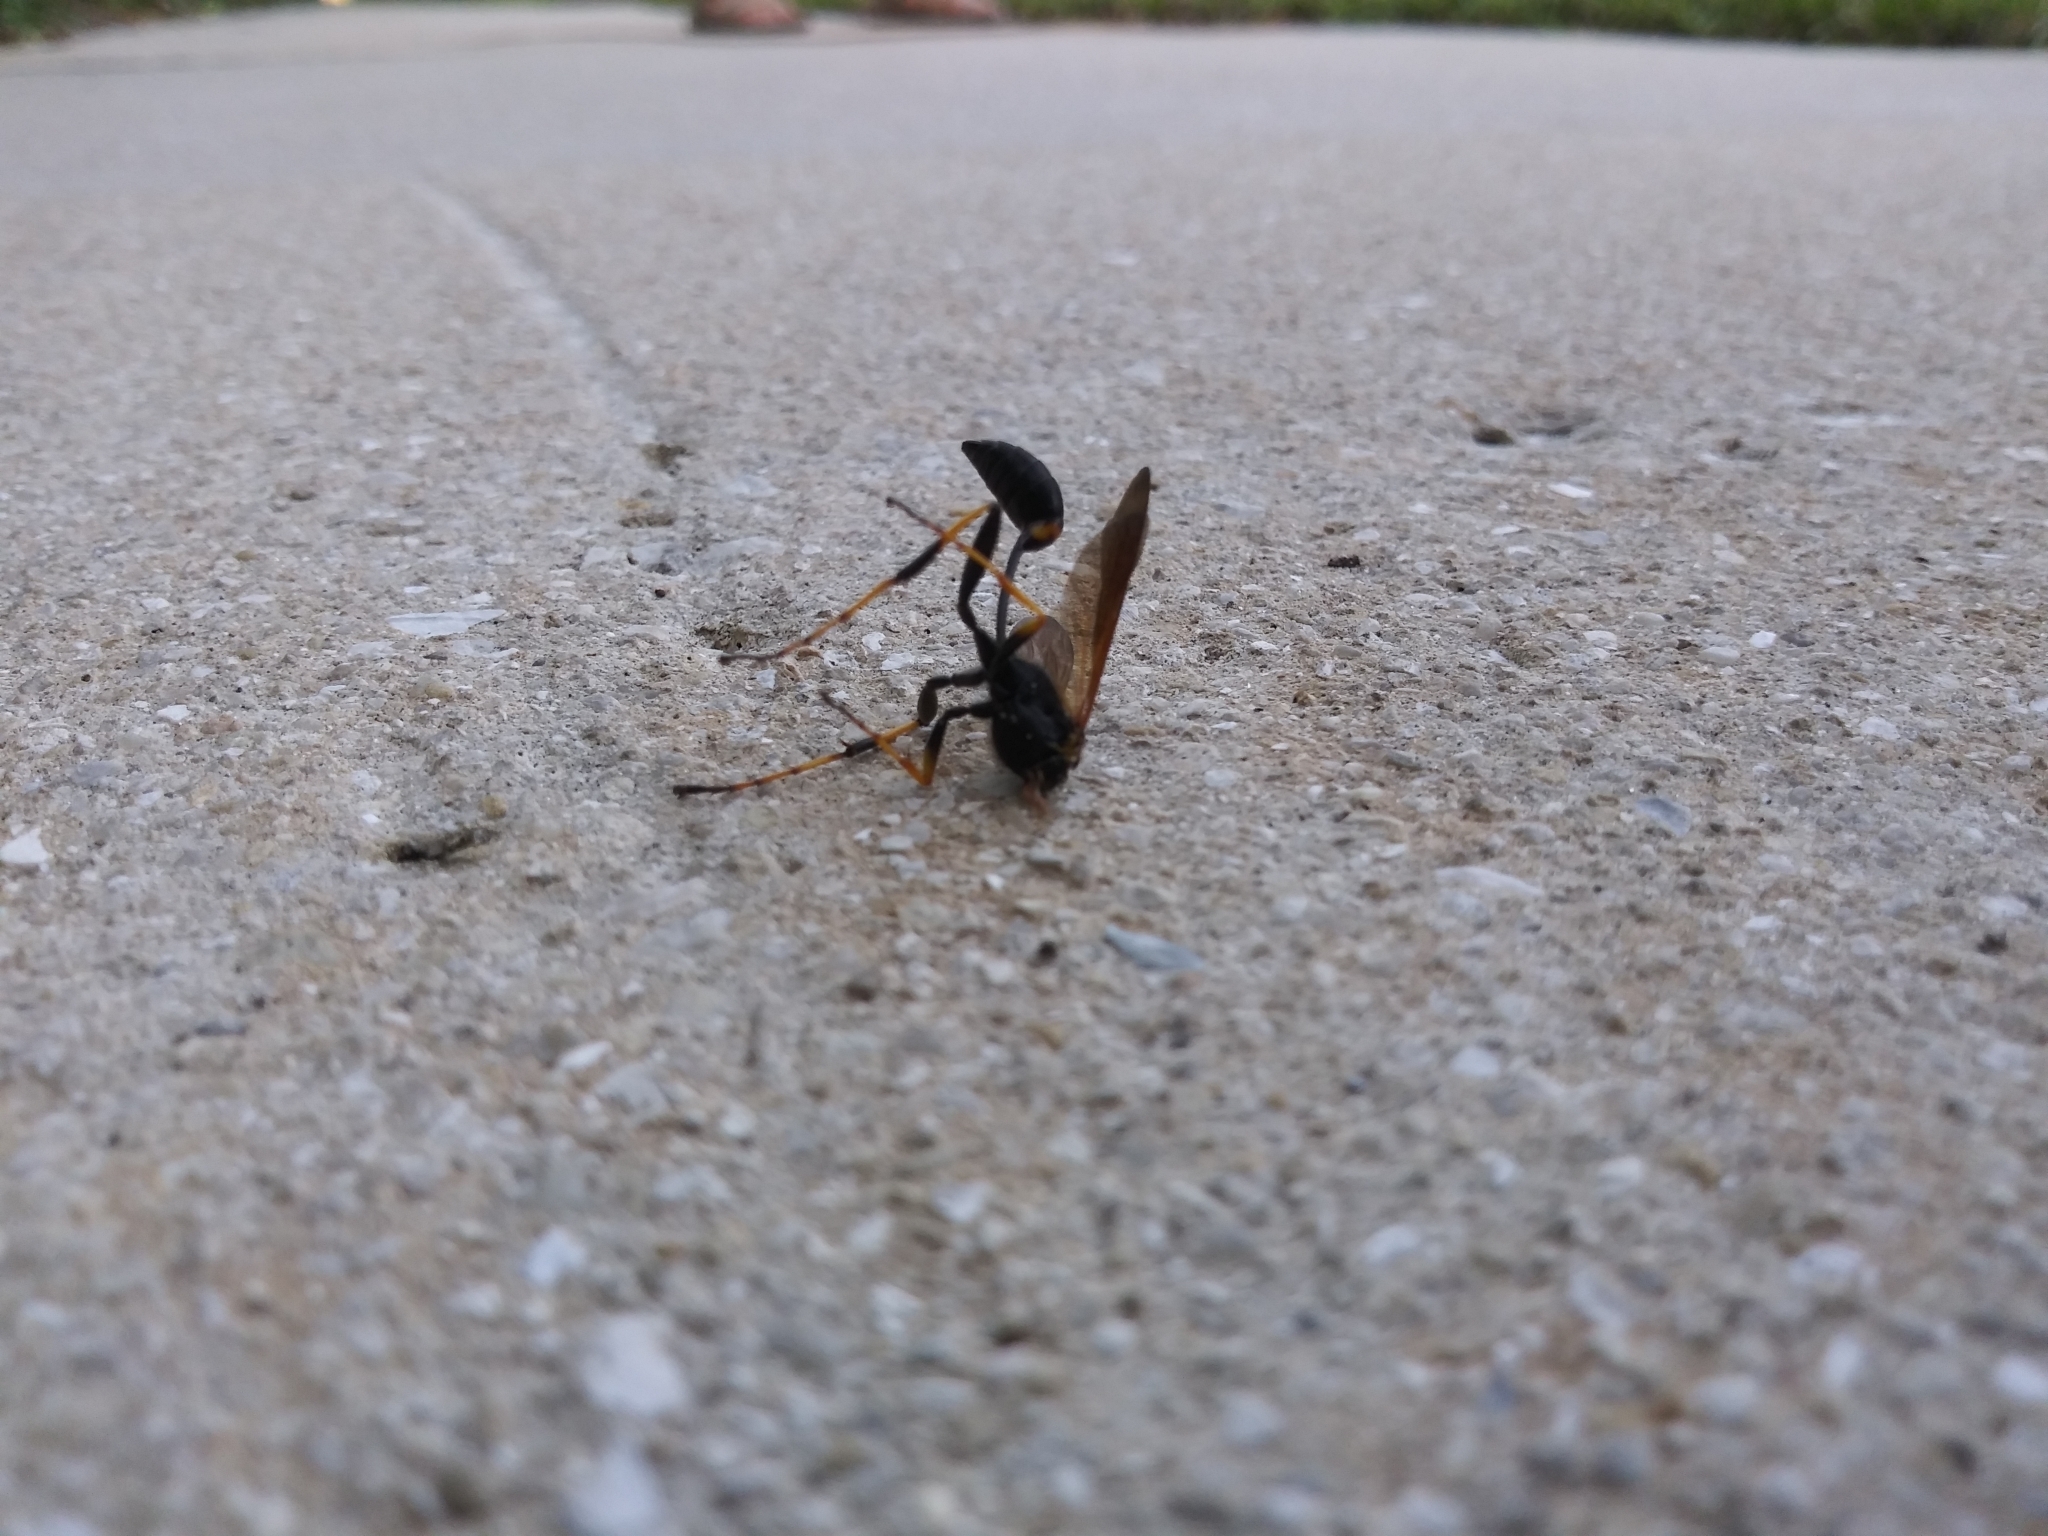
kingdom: Animalia
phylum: Arthropoda
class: Insecta
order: Hymenoptera
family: Sphecidae
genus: Sceliphron
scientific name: Sceliphron caementarium
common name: Mud dauber
